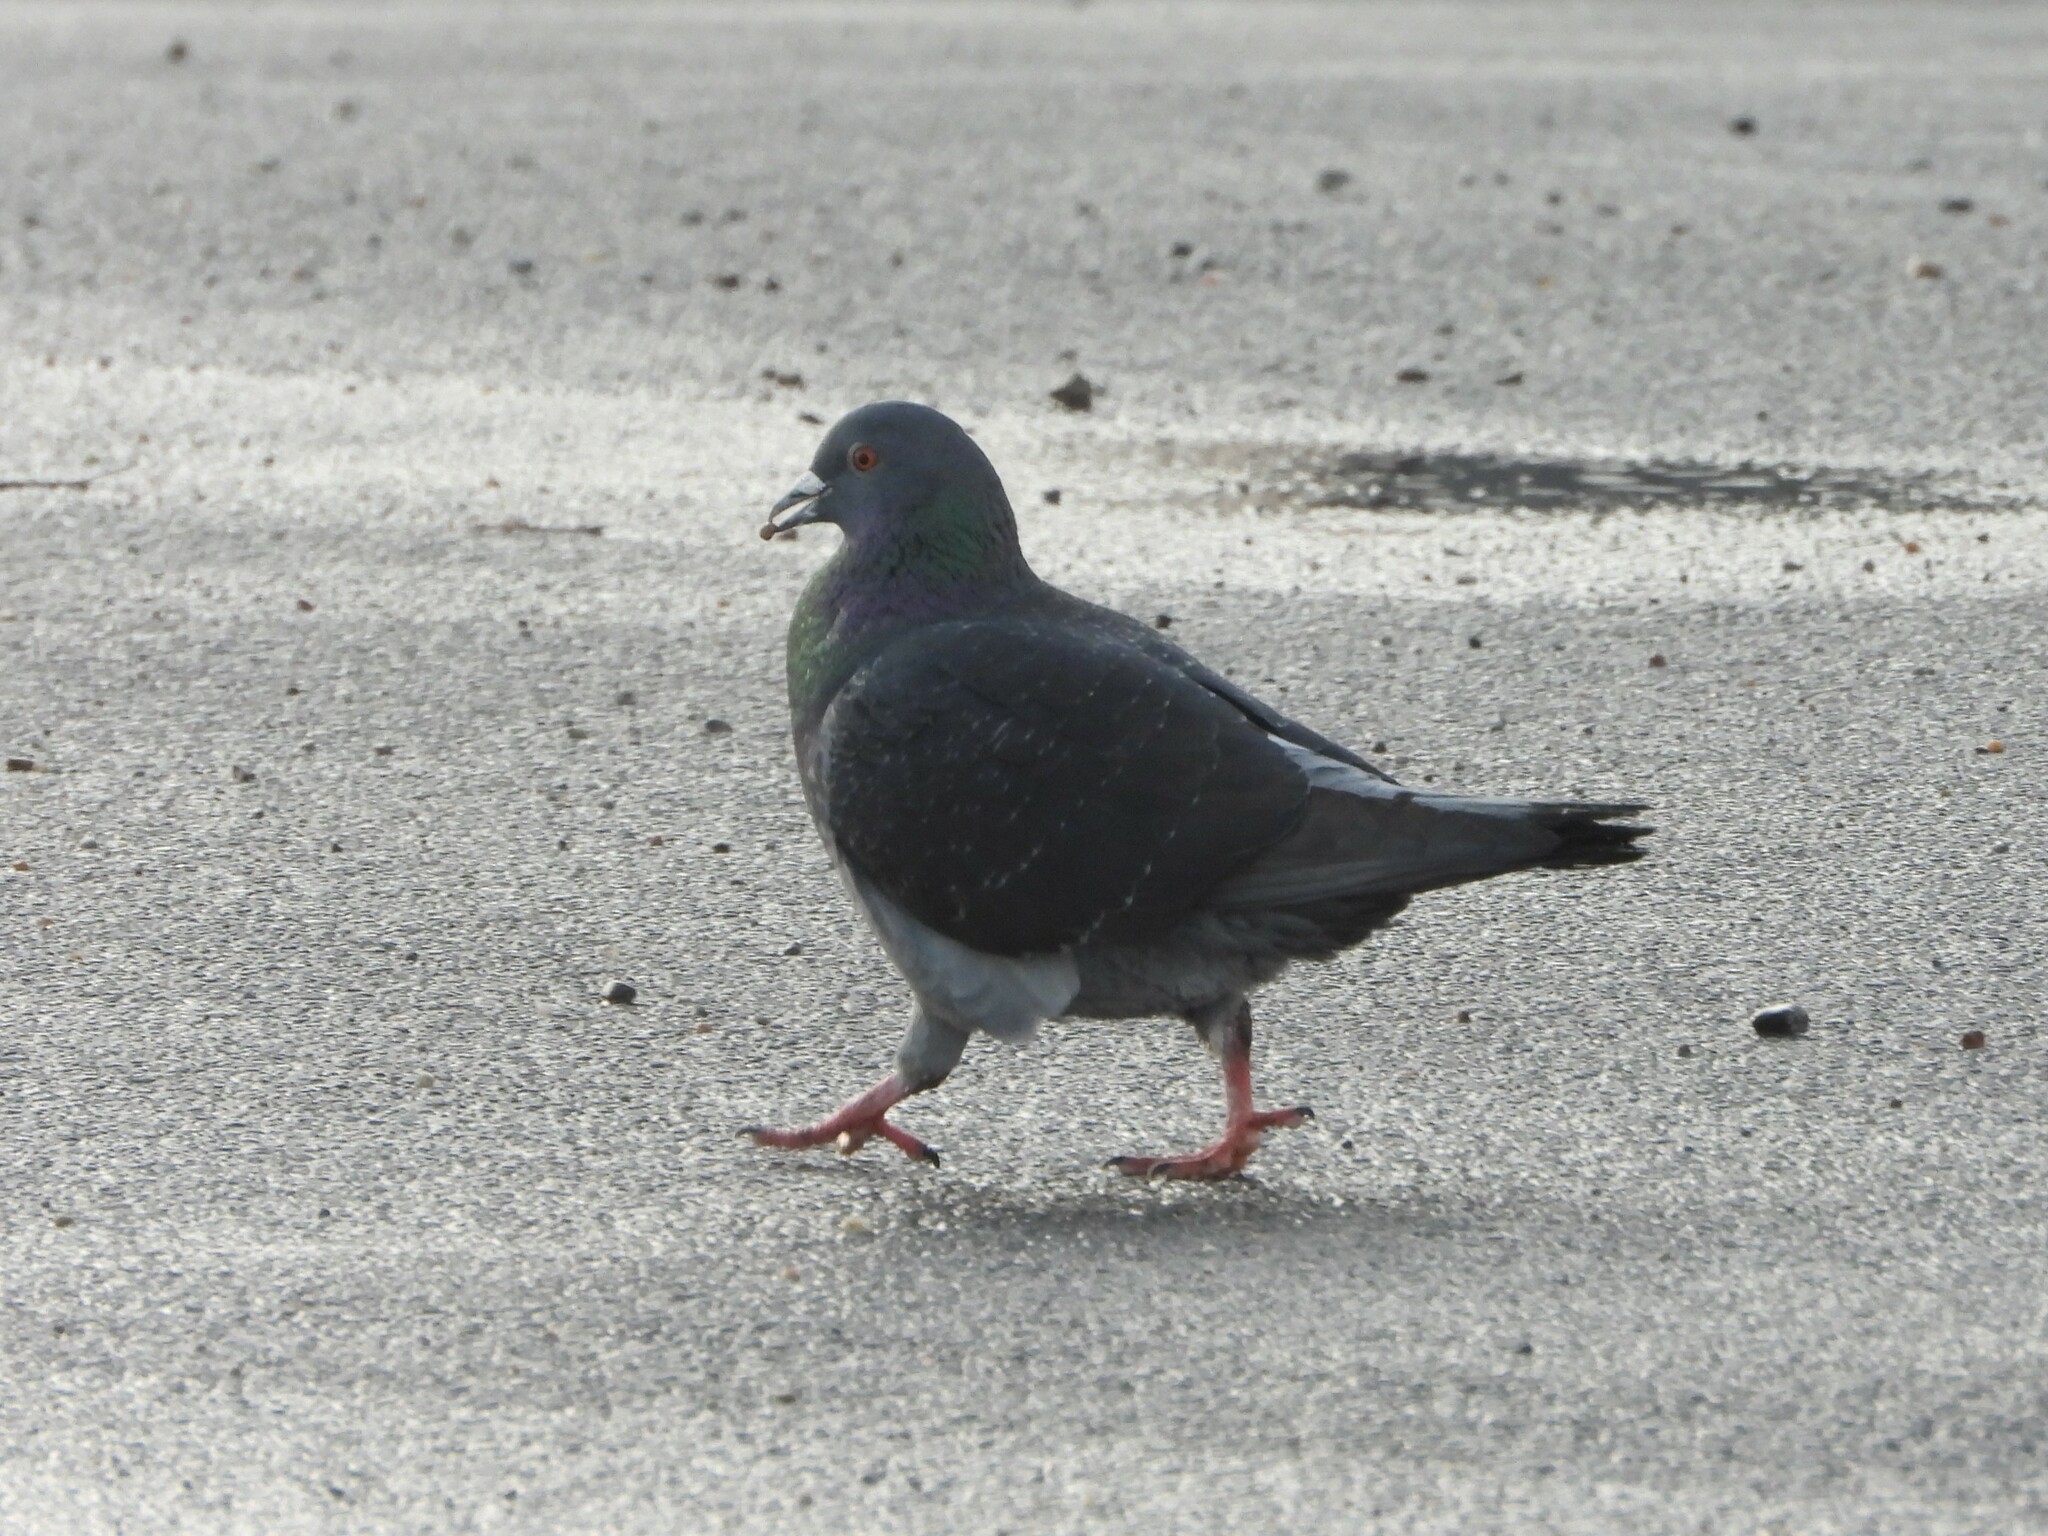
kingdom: Animalia
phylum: Chordata
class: Aves
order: Columbiformes
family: Columbidae
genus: Columba
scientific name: Columba livia
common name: Rock pigeon
